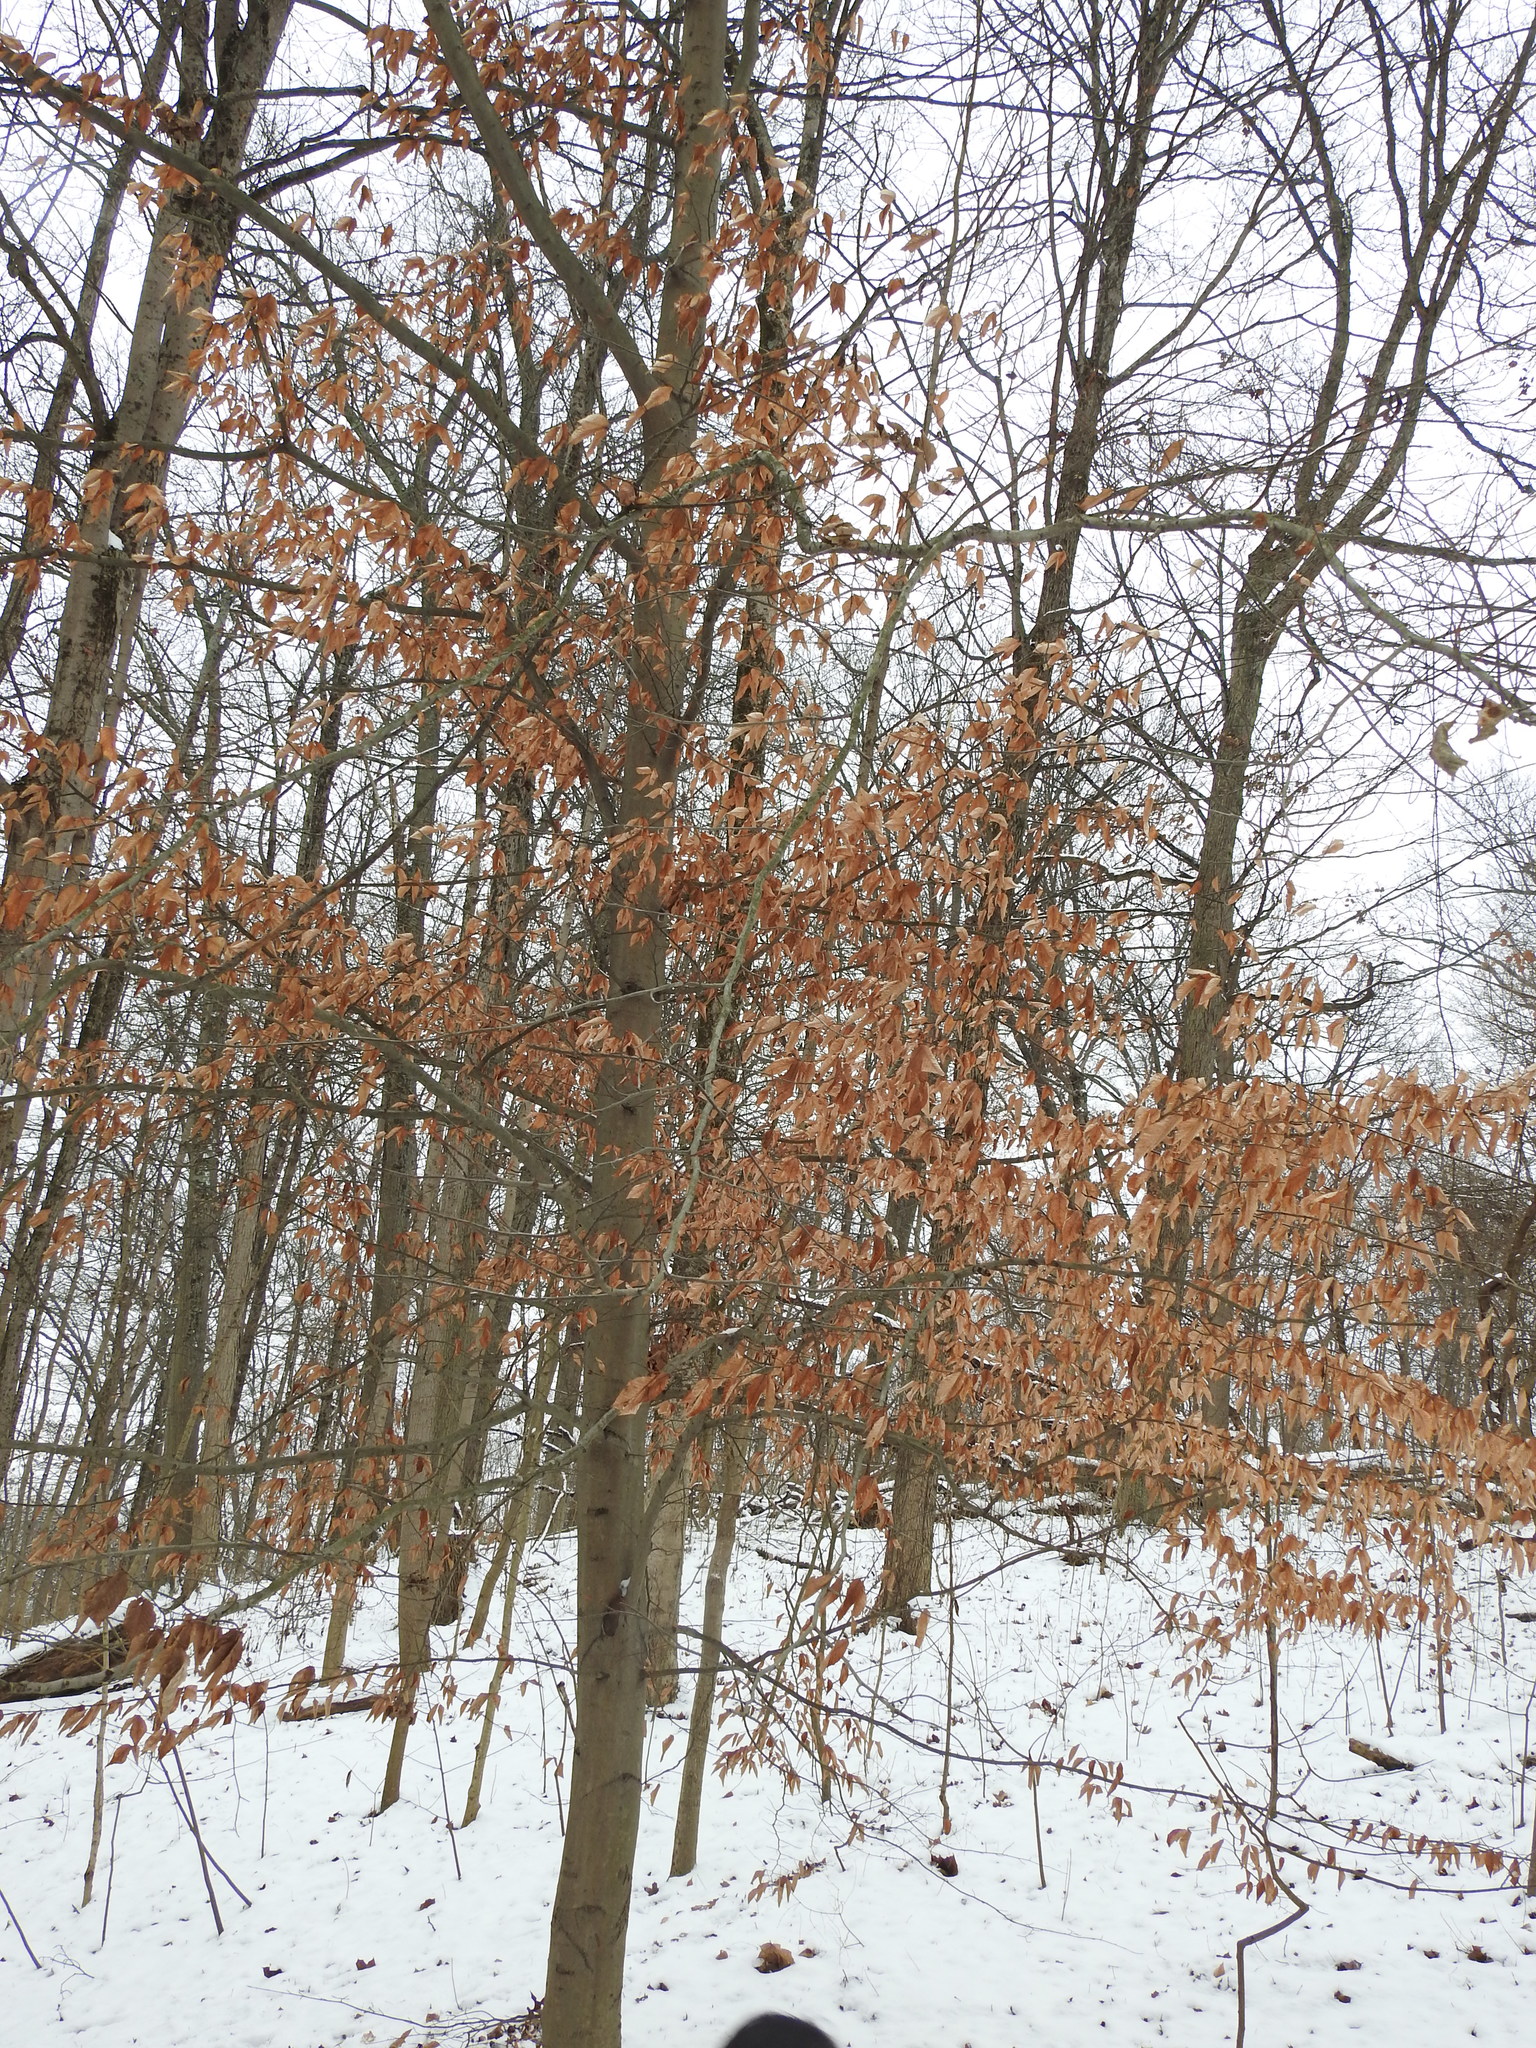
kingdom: Plantae
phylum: Tracheophyta
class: Magnoliopsida
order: Fagales
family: Fagaceae
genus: Fagus
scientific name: Fagus grandifolia
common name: American beech
